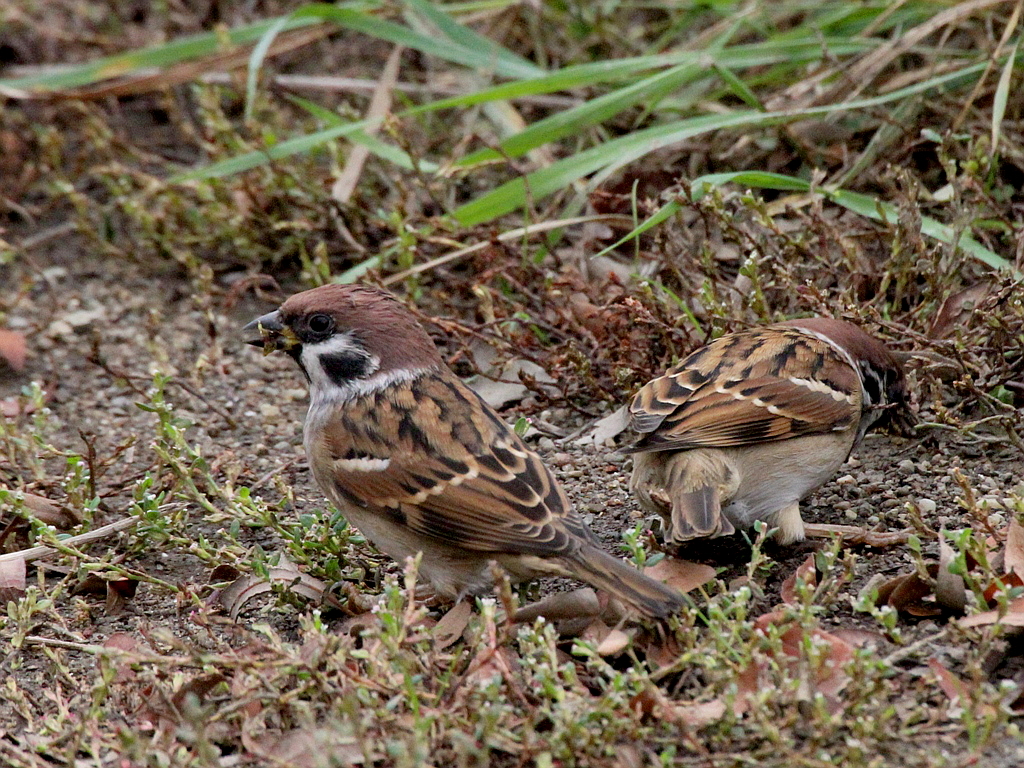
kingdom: Animalia
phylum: Chordata
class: Aves
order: Passeriformes
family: Passeridae
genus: Passer
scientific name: Passer montanus
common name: Eurasian tree sparrow
